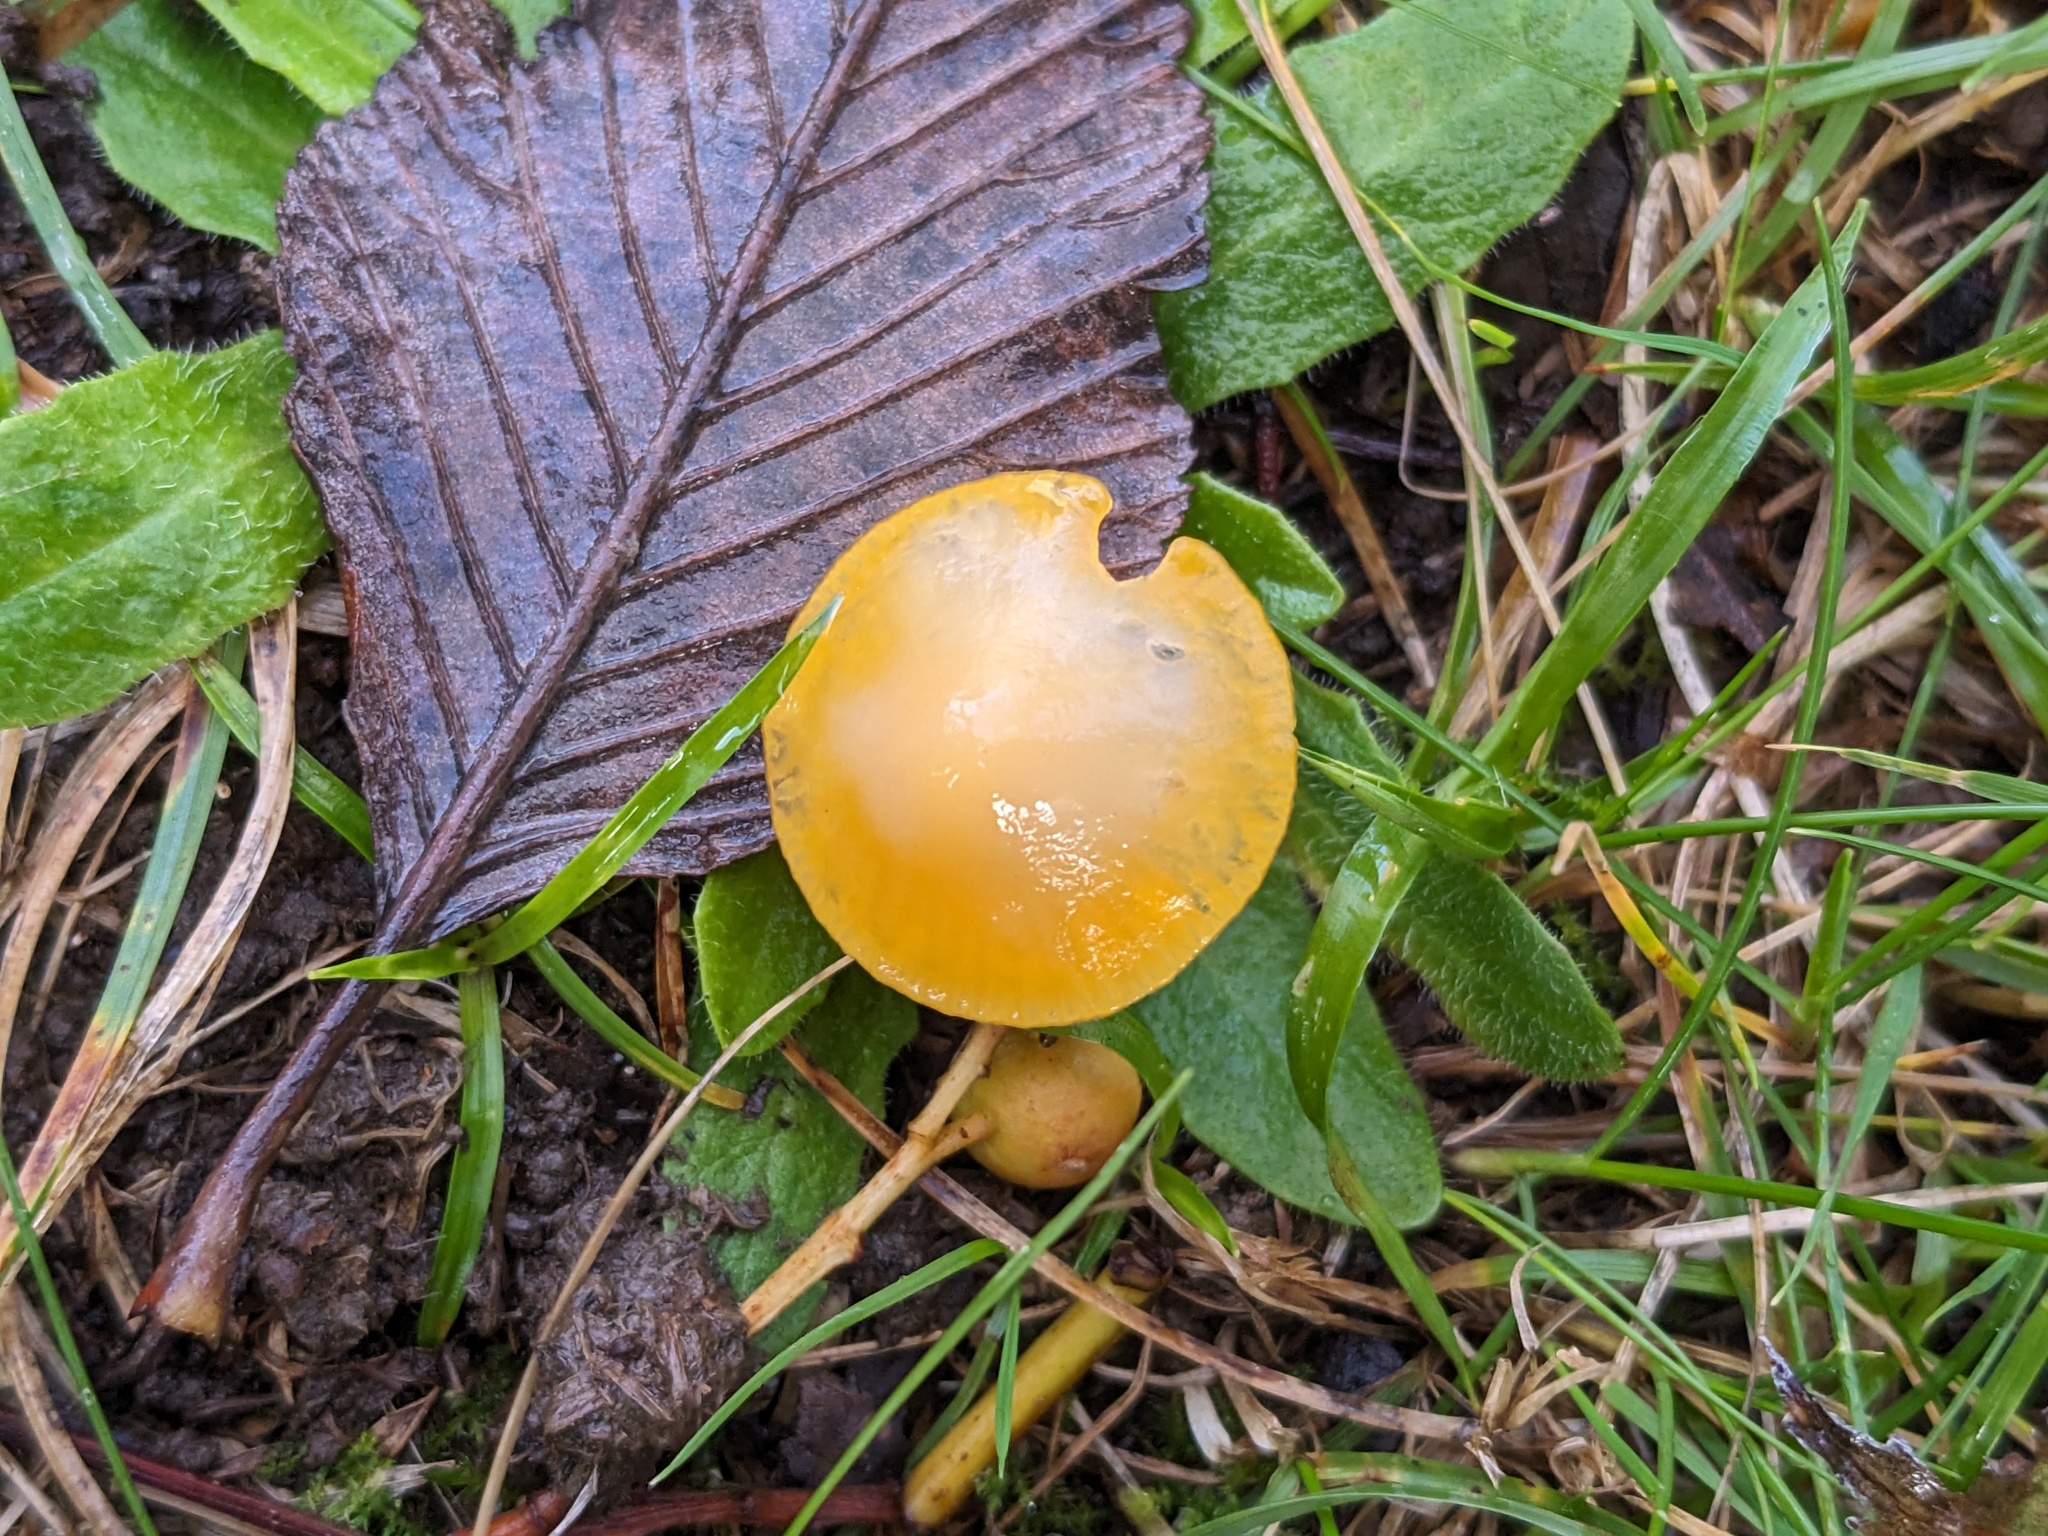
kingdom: Fungi
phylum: Basidiomycota
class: Agaricomycetes
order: Agaricales
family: Hygrophoraceae
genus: Gliophorus
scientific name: Gliophorus psittacinus
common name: Parrot wax-cap
